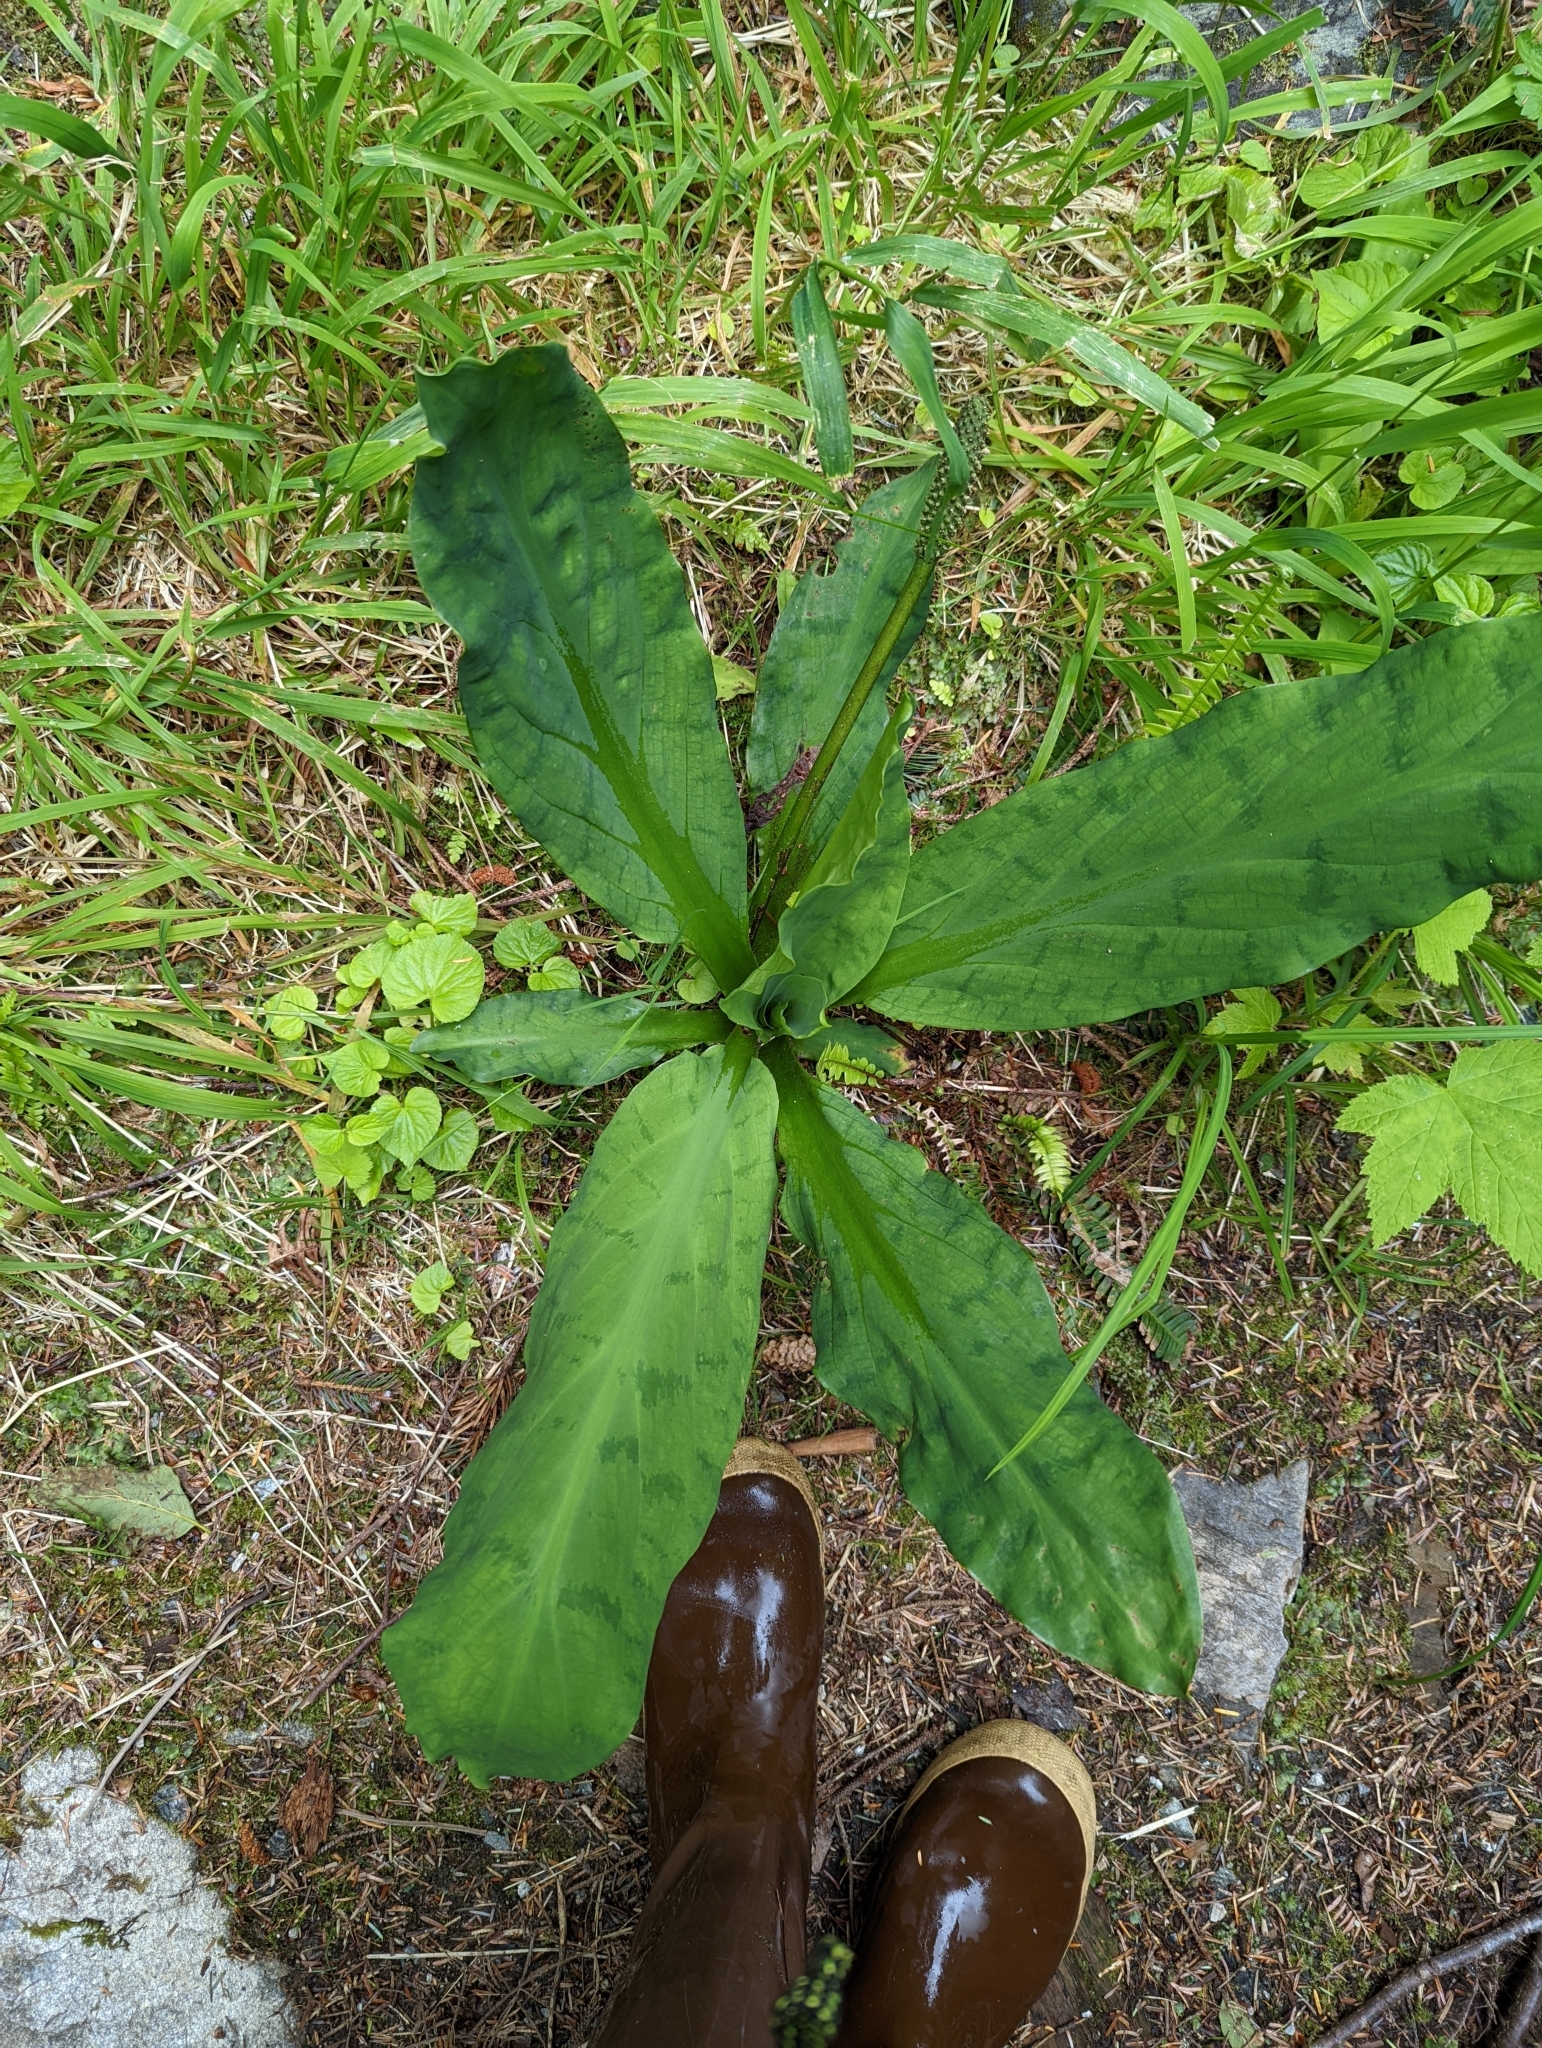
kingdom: Plantae
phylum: Tracheophyta
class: Liliopsida
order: Alismatales
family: Araceae
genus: Lysichiton
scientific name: Lysichiton americanus
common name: American skunk cabbage
